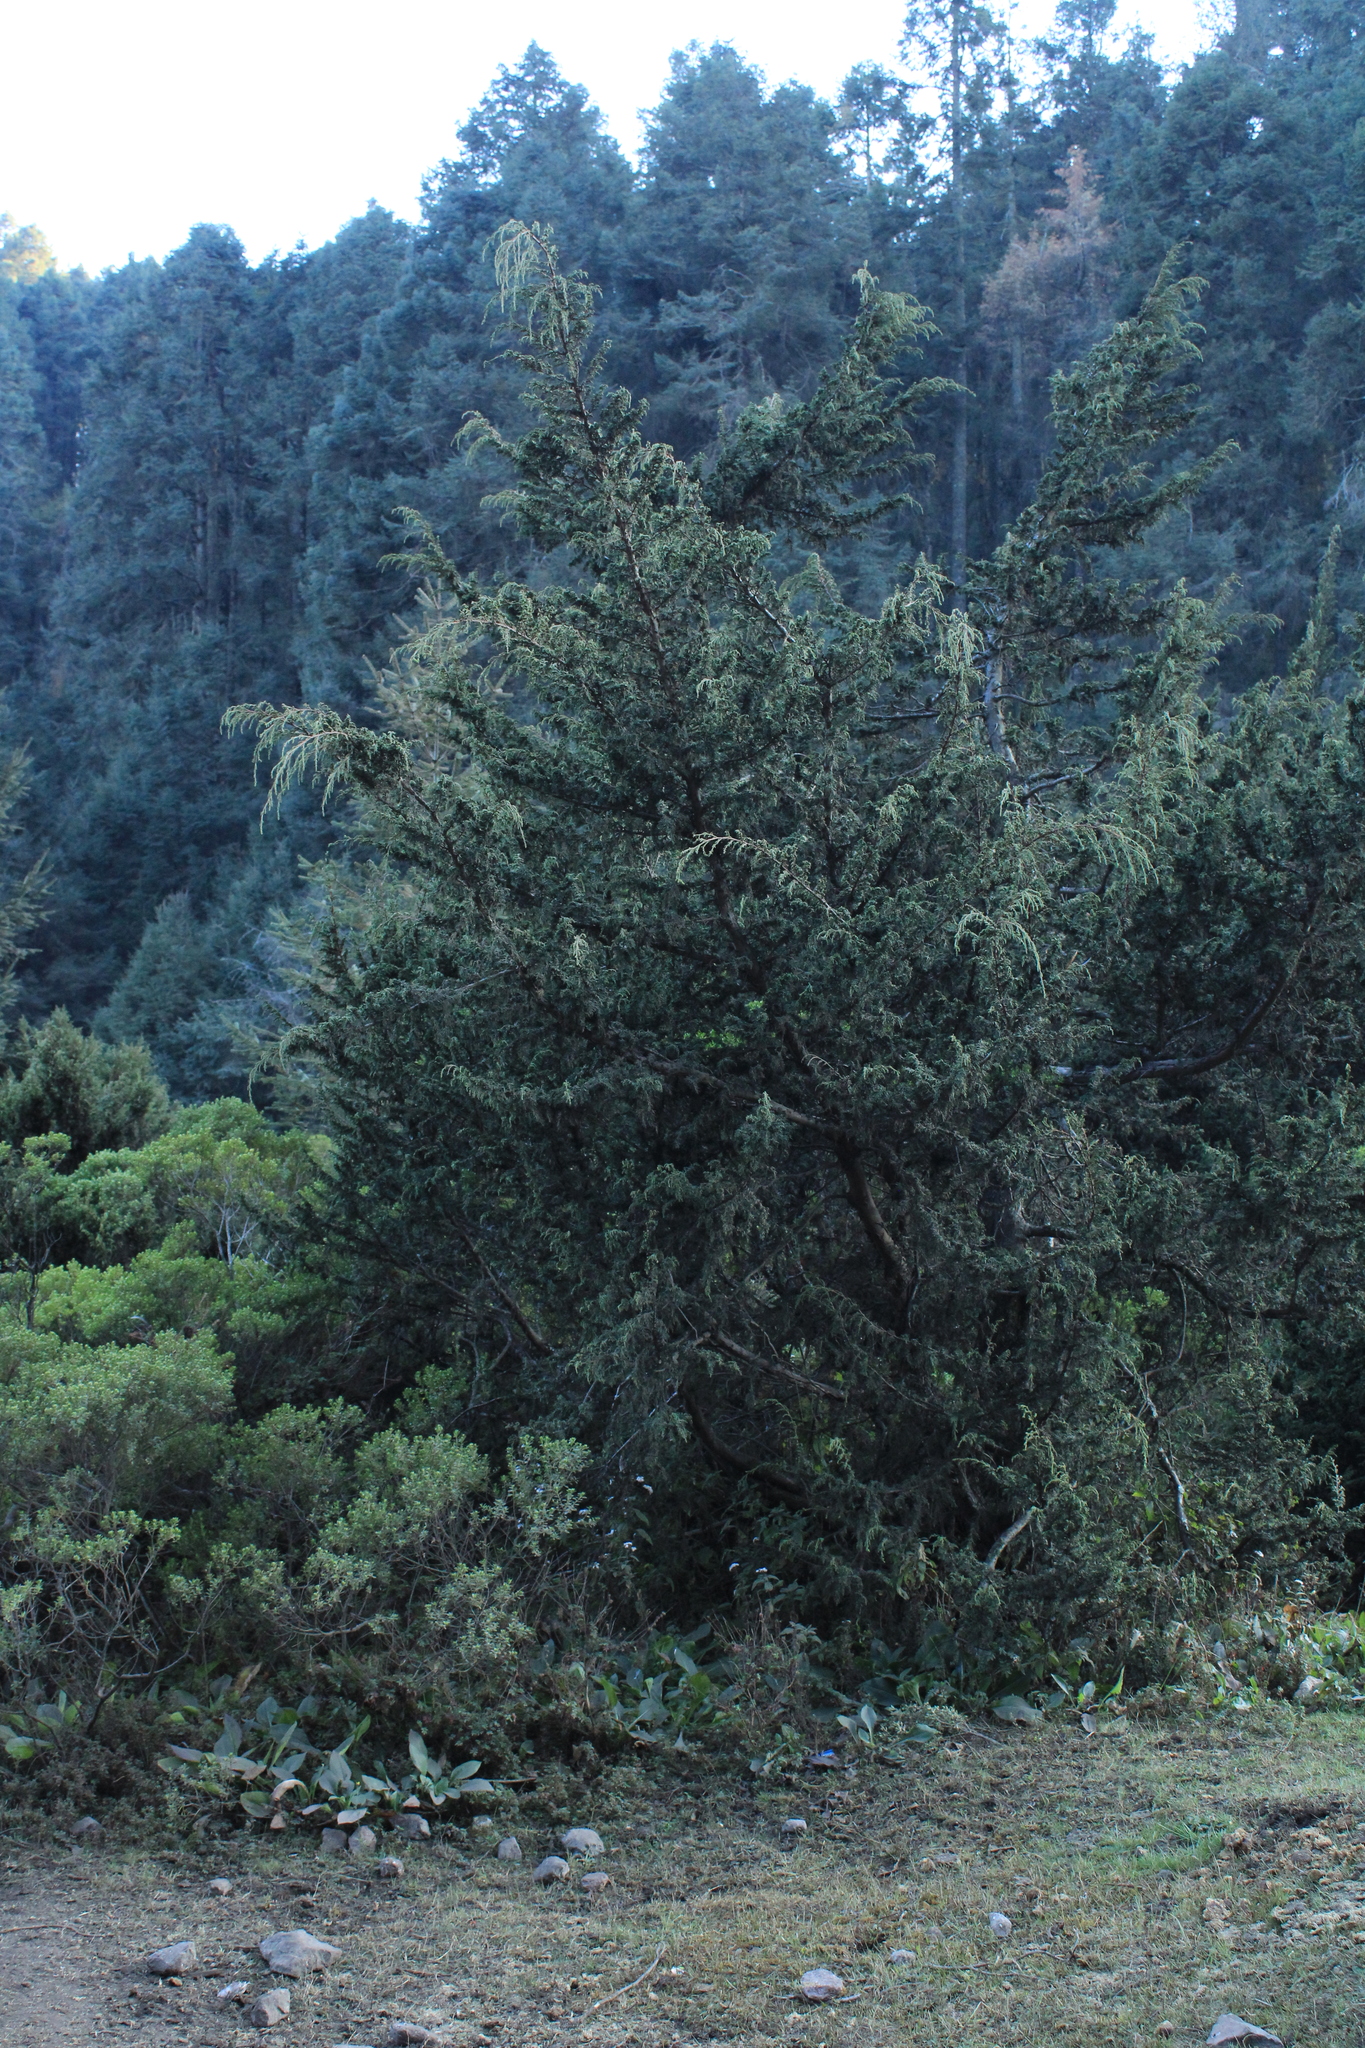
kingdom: Plantae
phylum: Tracheophyta
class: Pinopsida
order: Pinales
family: Cupressaceae
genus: Cupressus
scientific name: Cupressus lusitanica
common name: Mexican cypress
